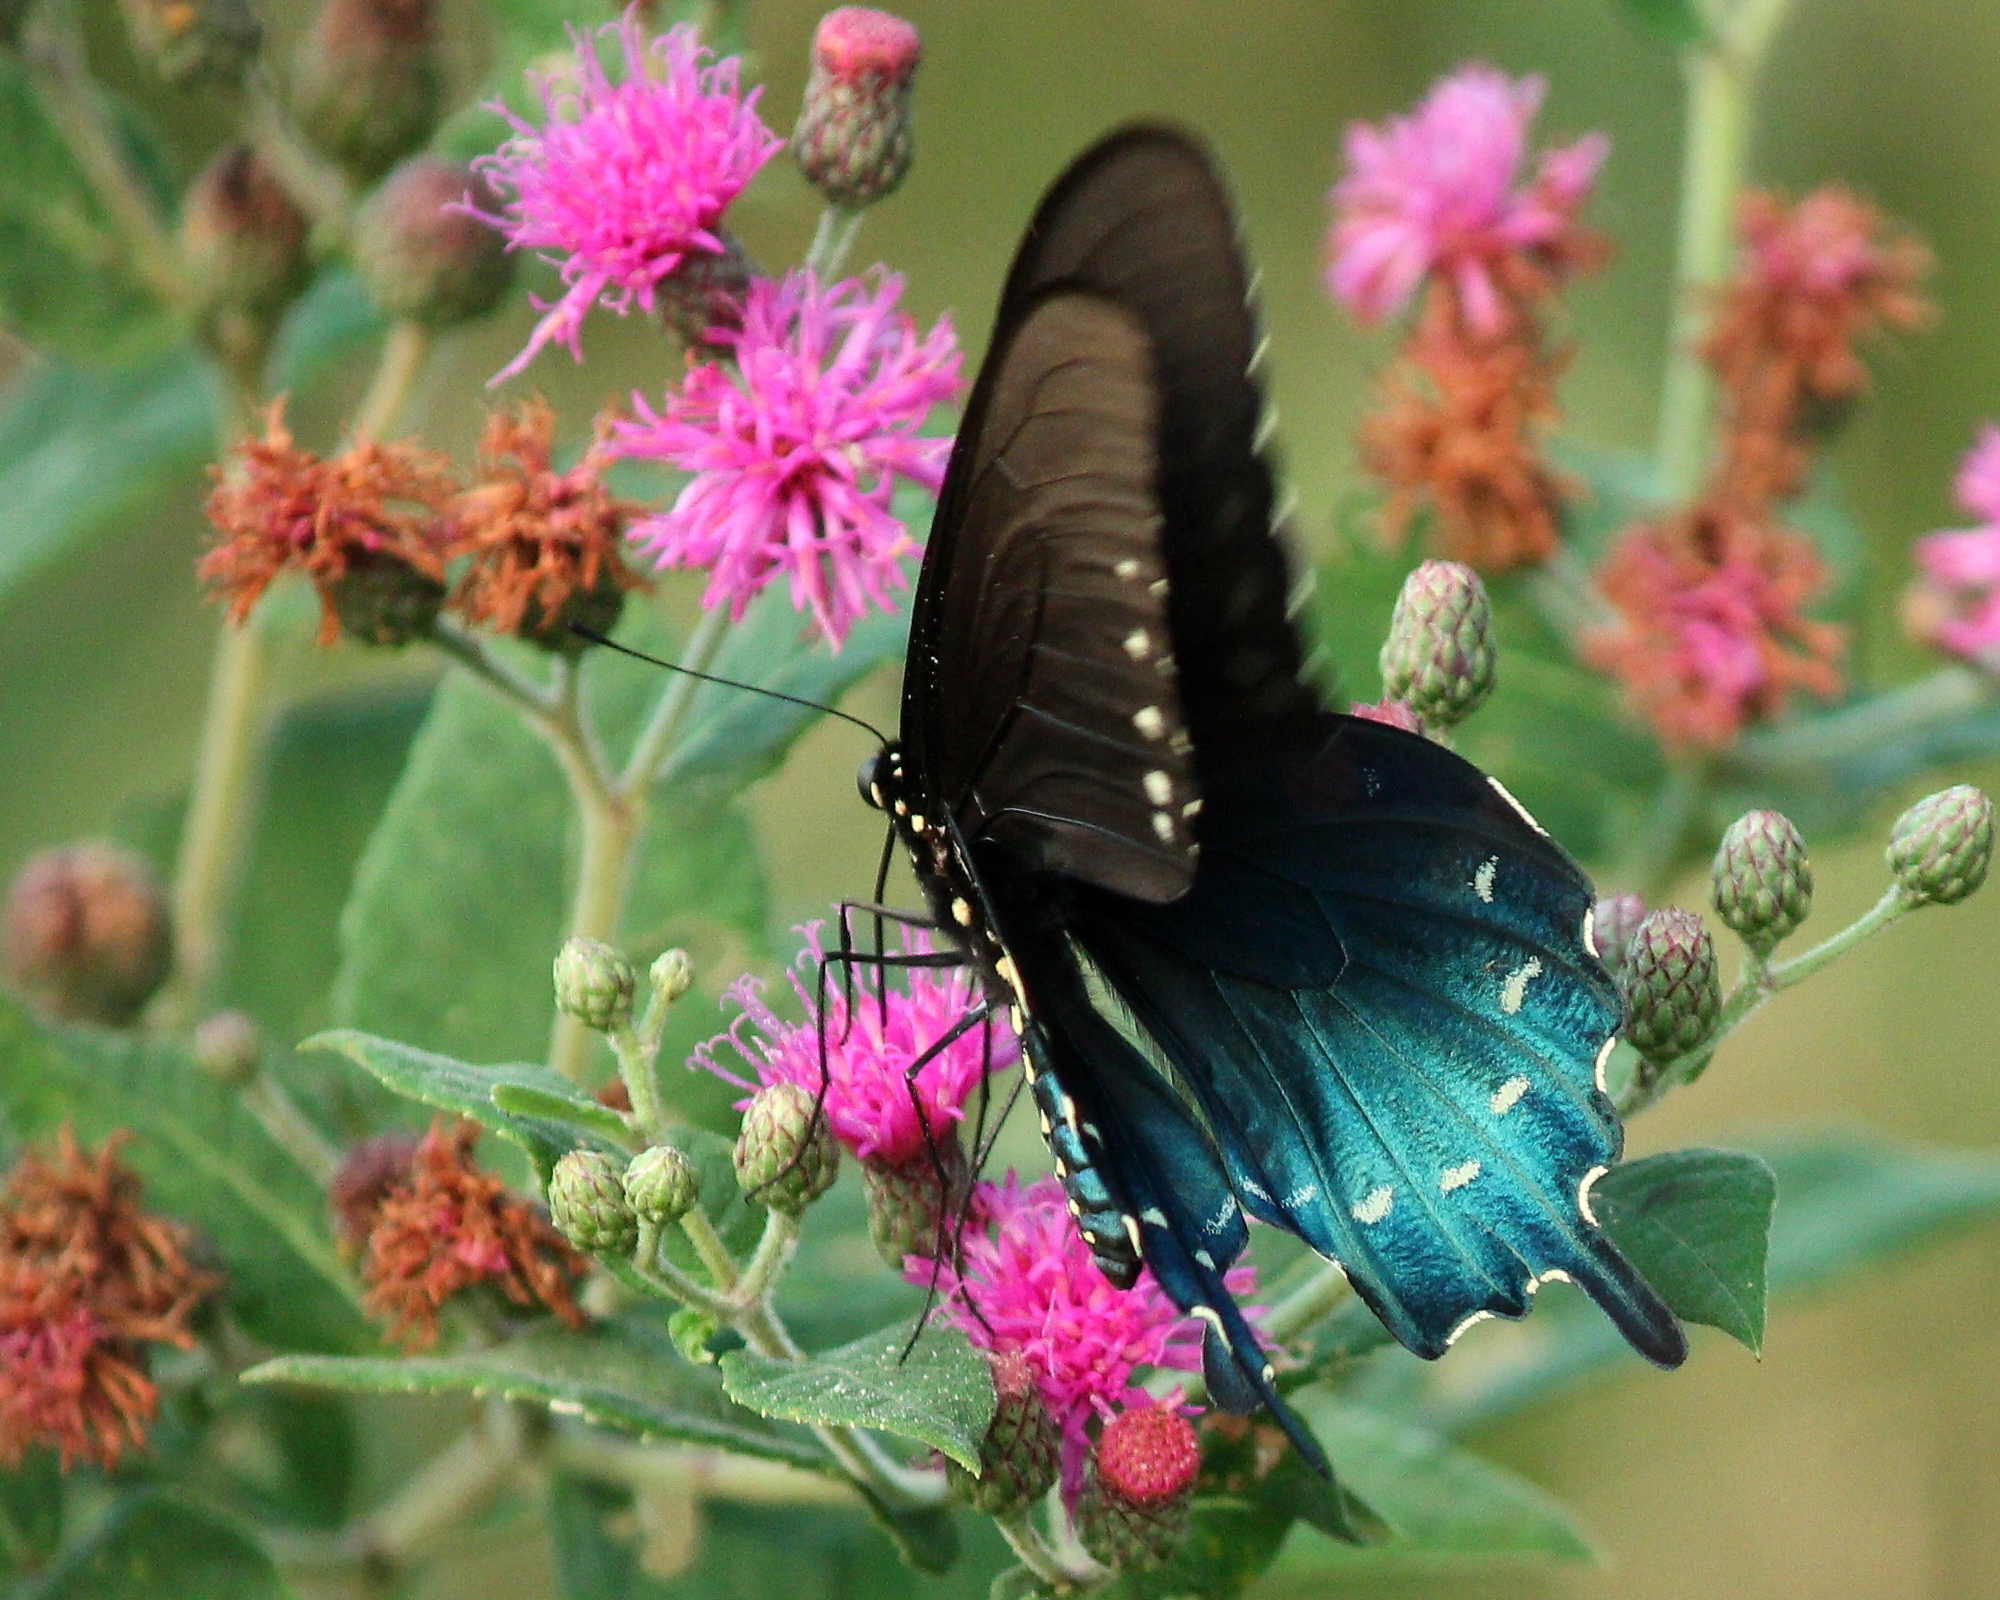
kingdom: Animalia
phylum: Arthropoda
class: Insecta
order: Lepidoptera
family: Papilionidae
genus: Battus
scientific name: Battus philenor
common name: Pipevine swallowtail
